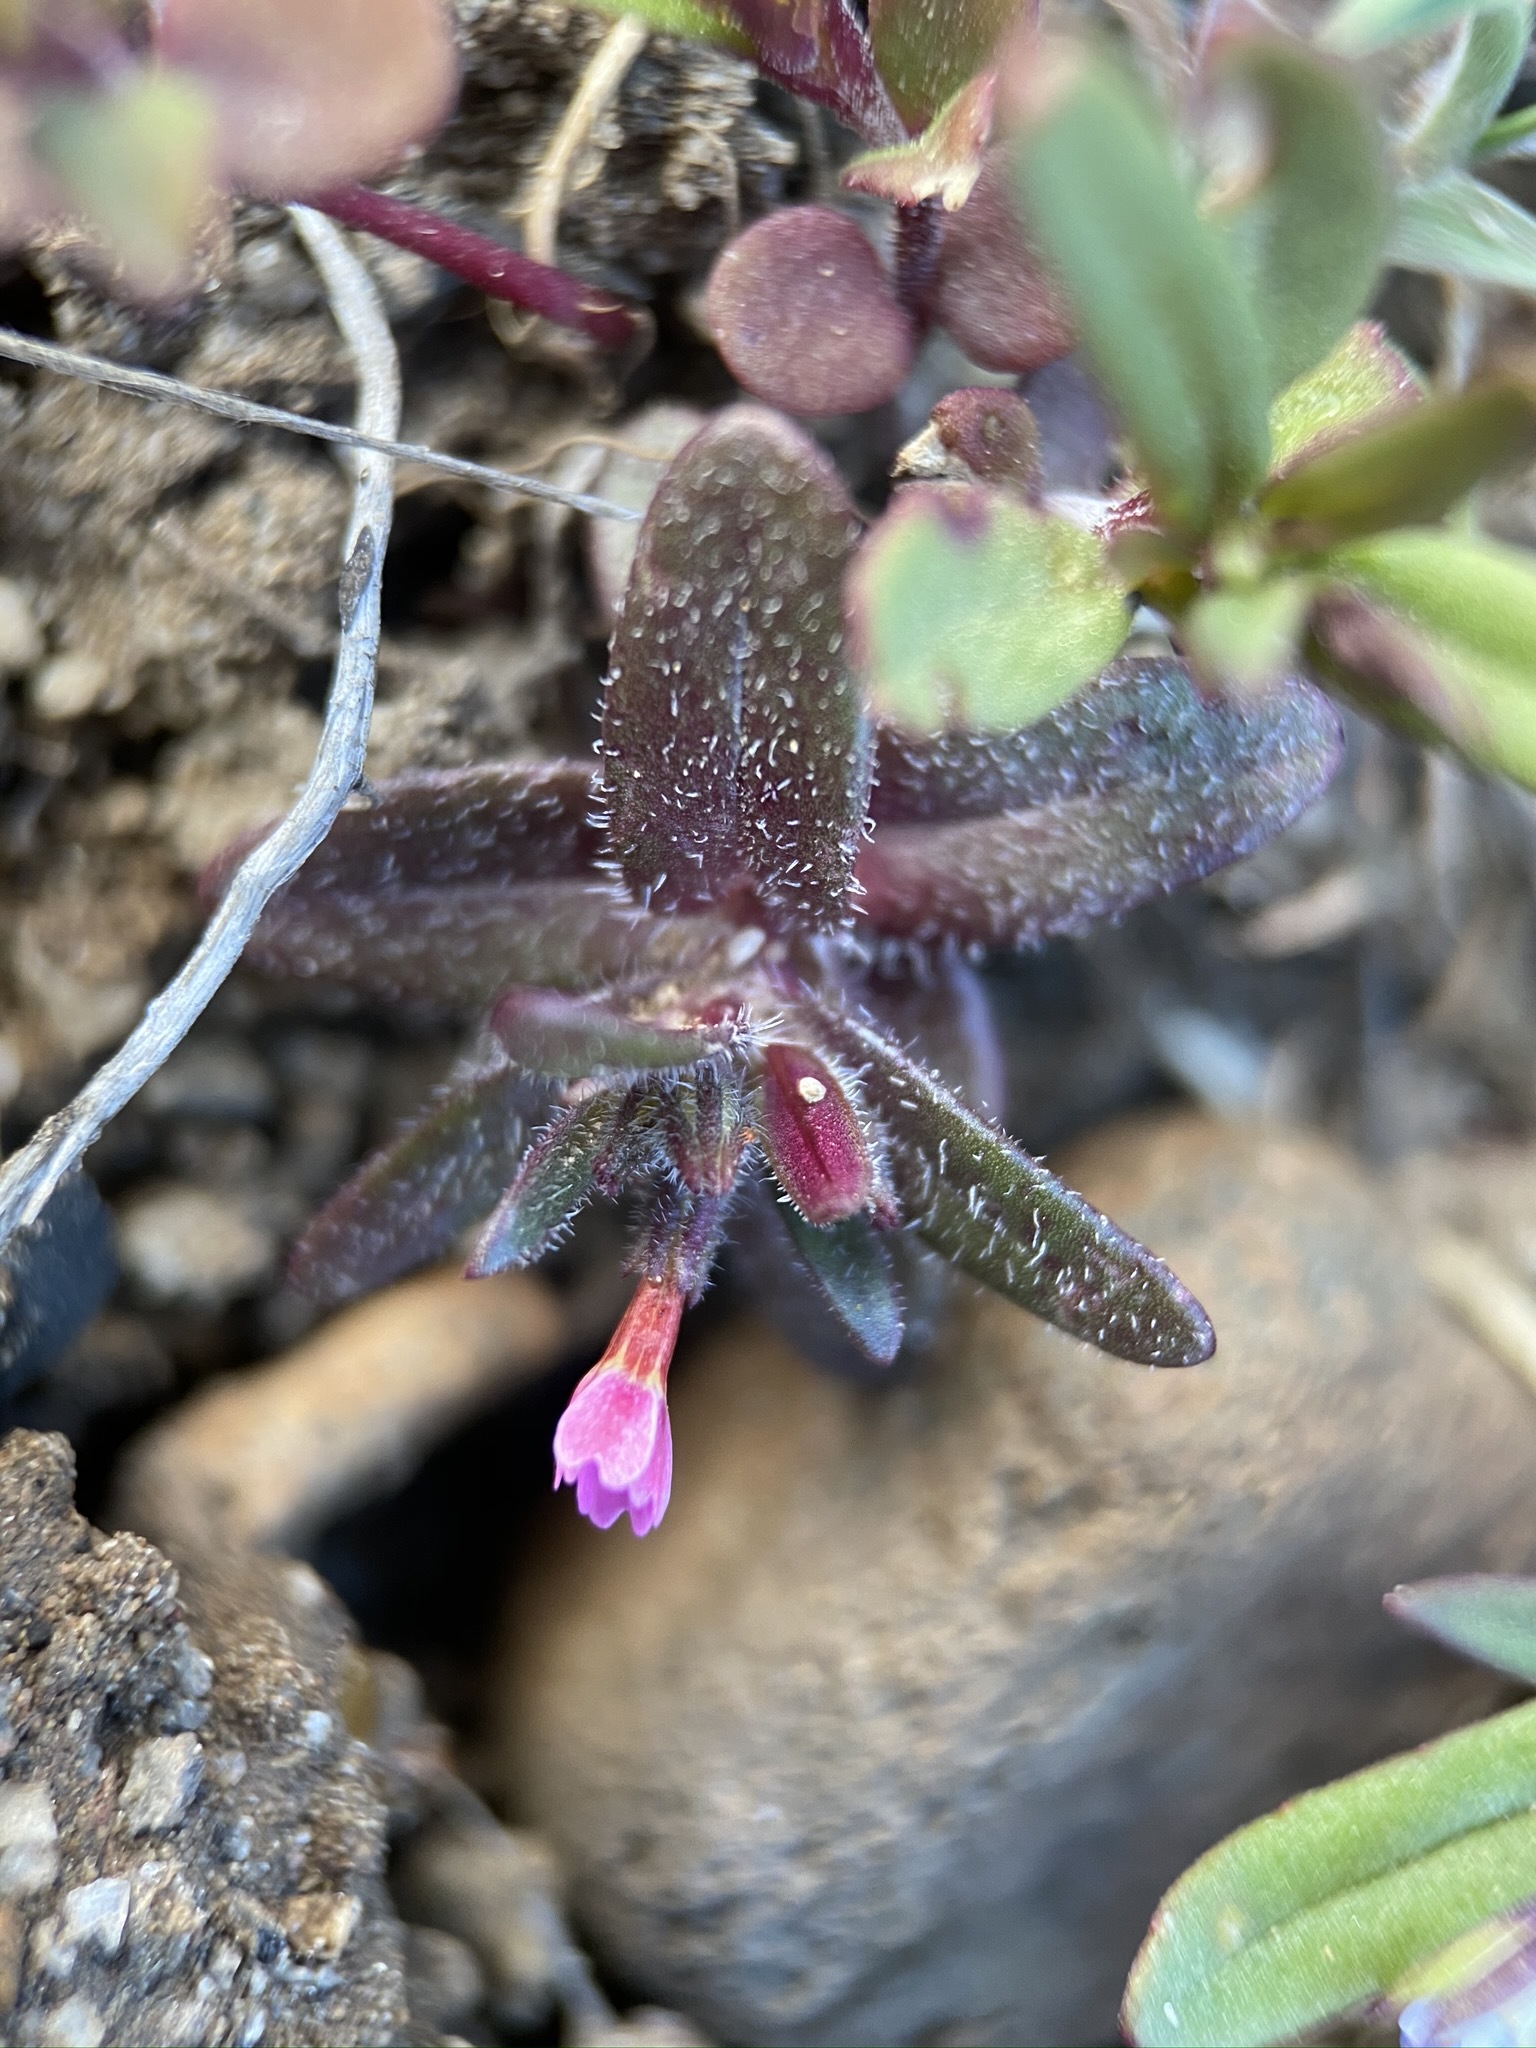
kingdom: Plantae
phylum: Tracheophyta
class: Magnoliopsida
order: Ericales
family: Polemoniaceae
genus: Phlox
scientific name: Phlox gracilis
